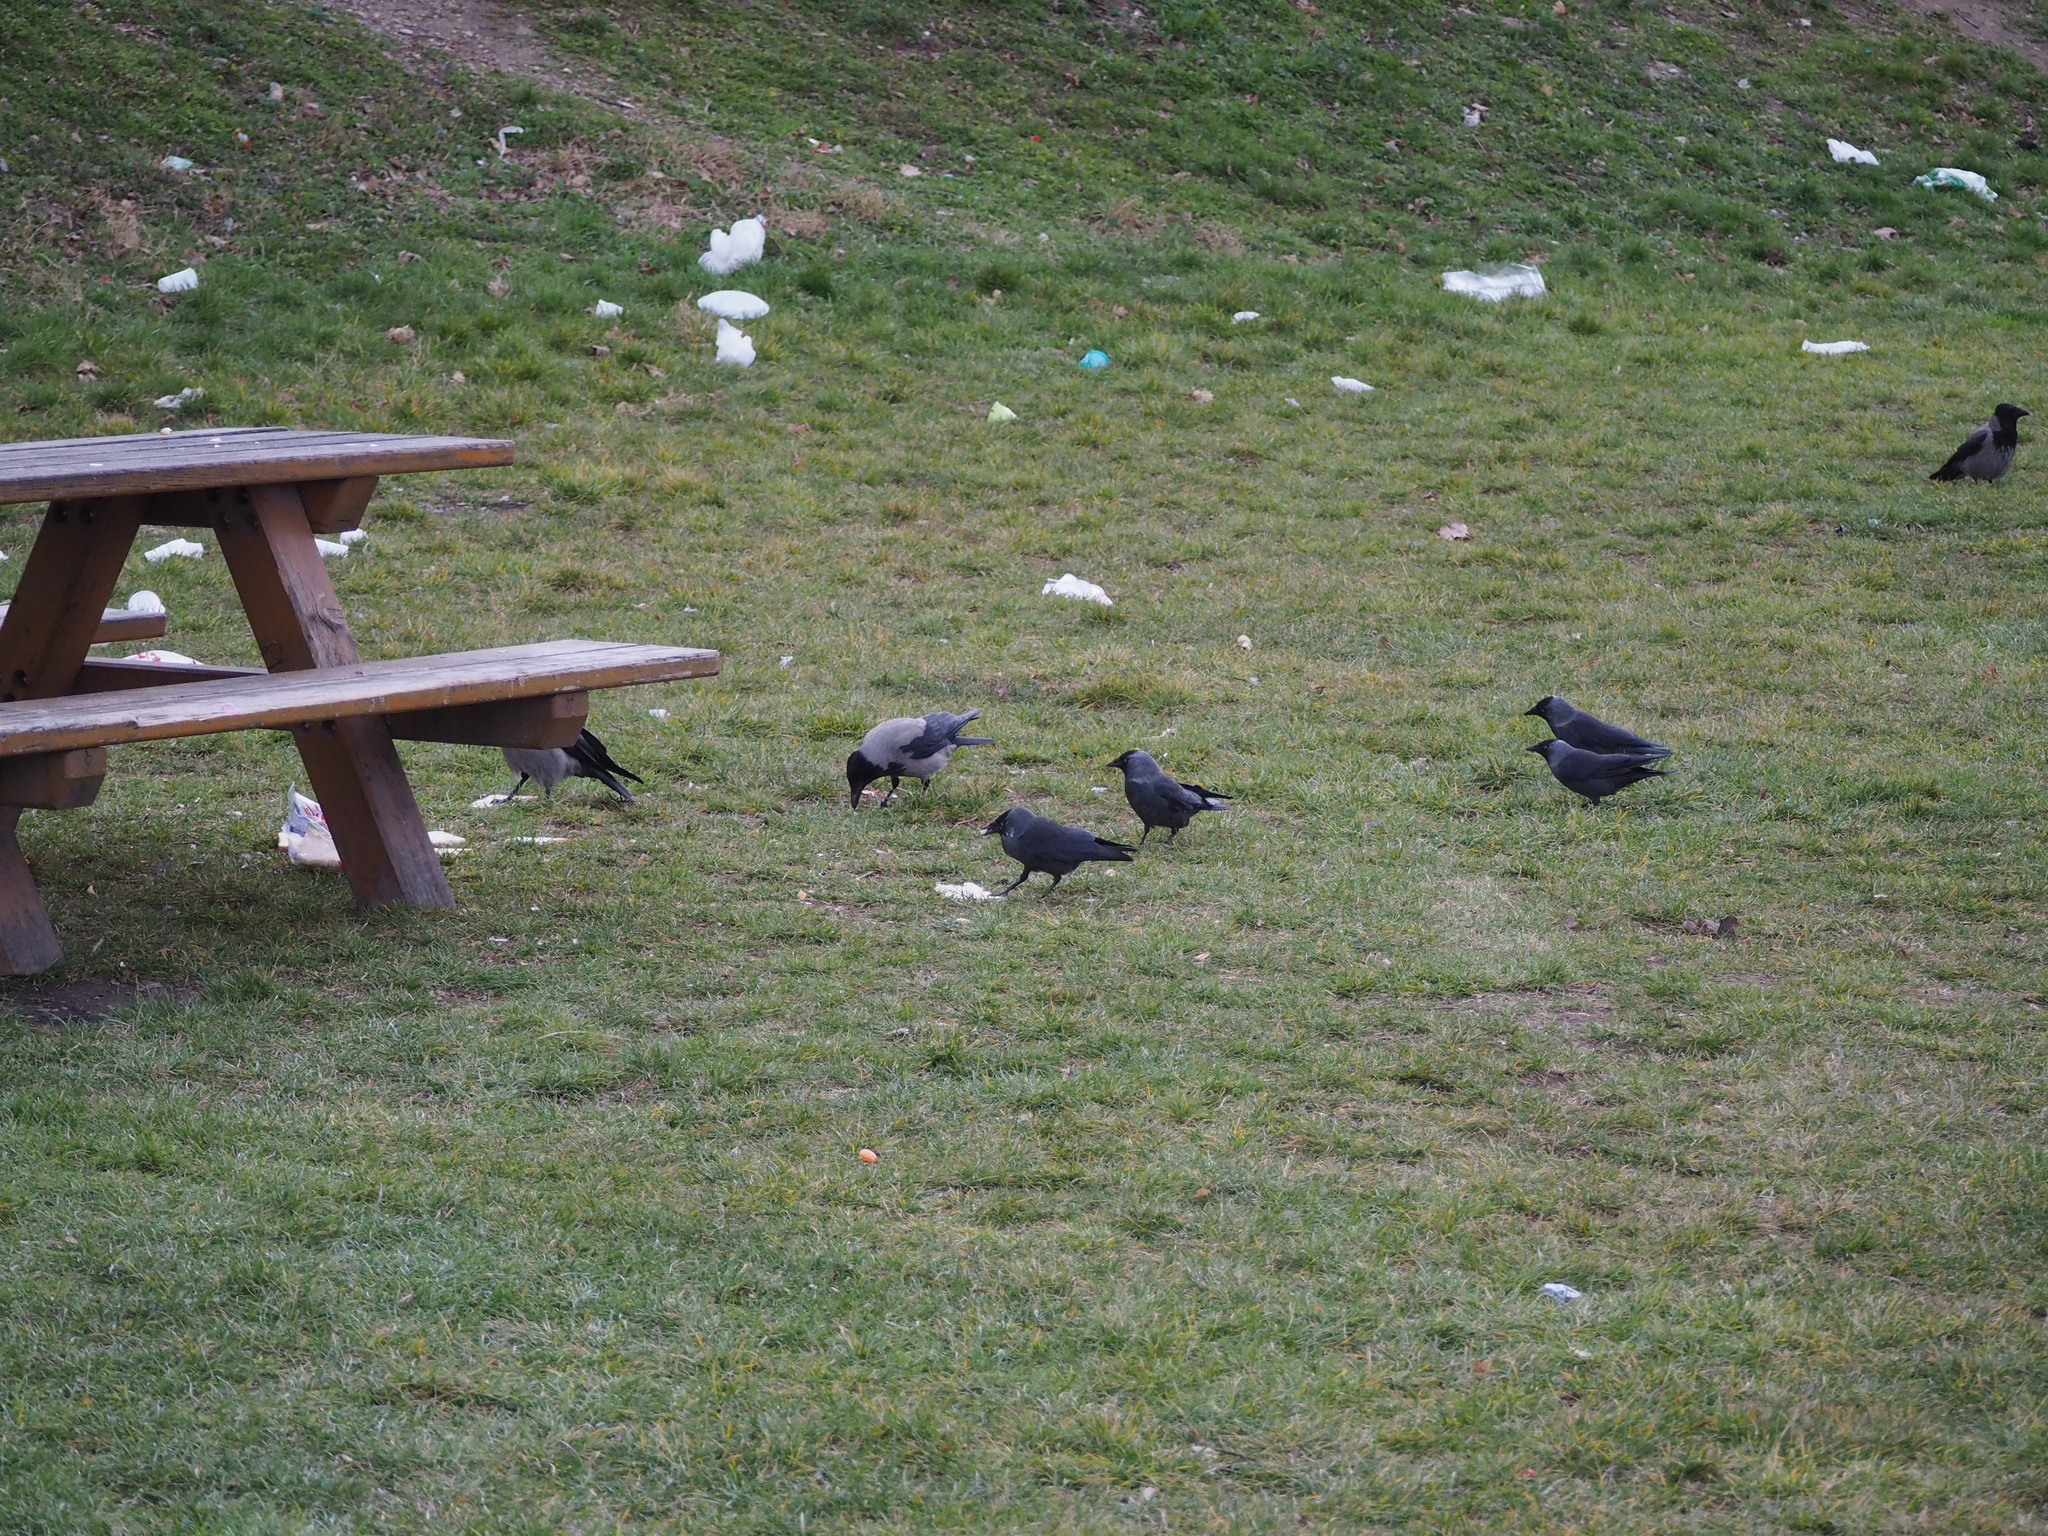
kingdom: Animalia
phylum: Chordata
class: Aves
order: Passeriformes
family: Corvidae
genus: Coloeus
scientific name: Coloeus monedula
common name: Western jackdaw
